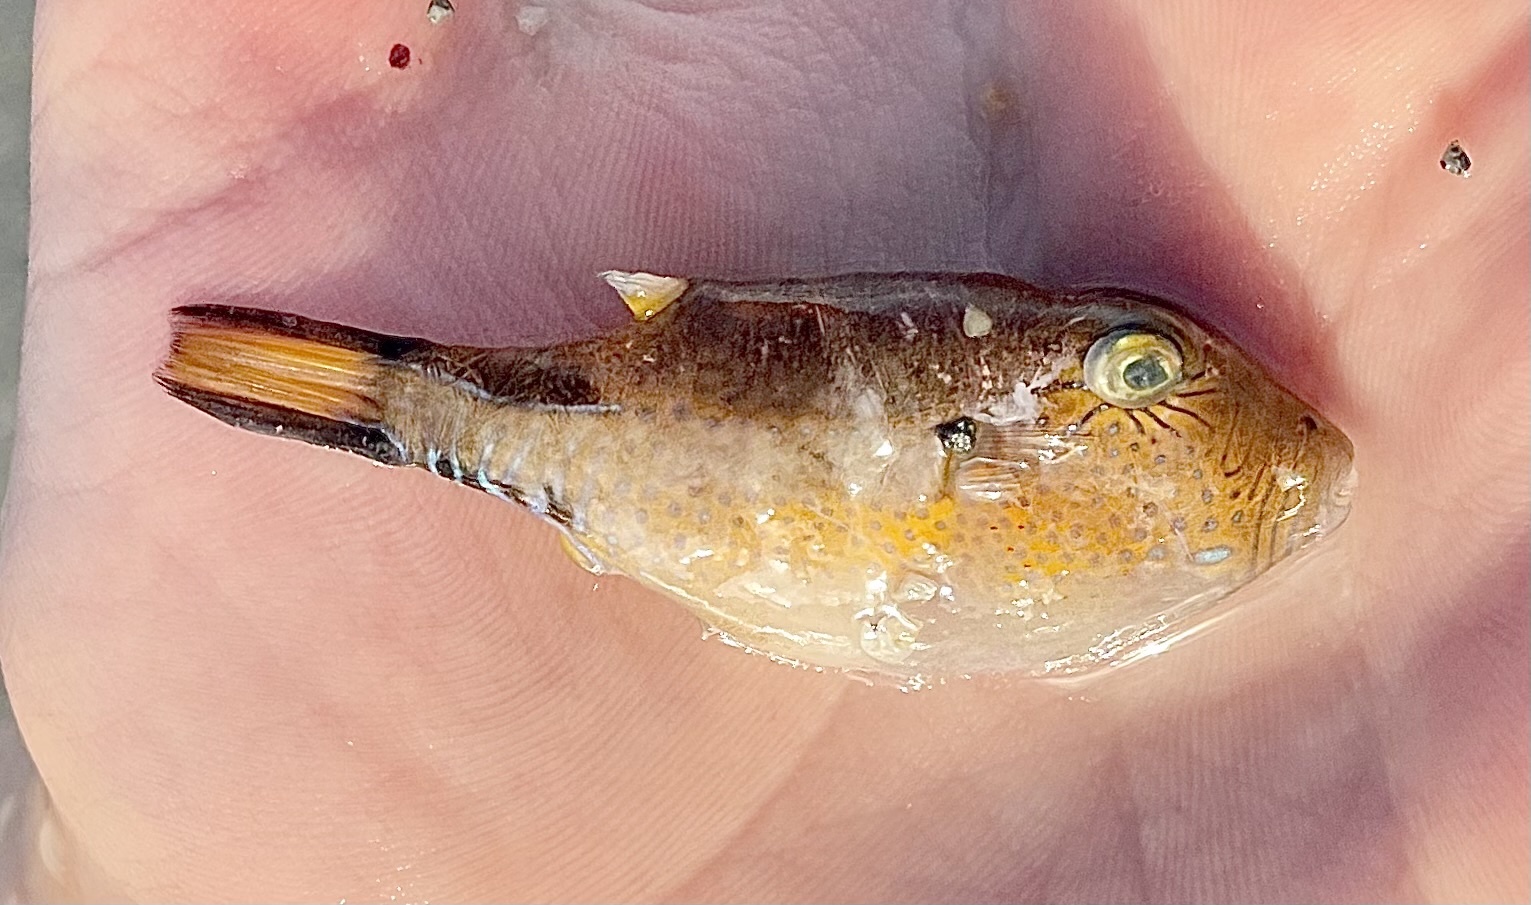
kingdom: Animalia
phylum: Chordata
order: Tetraodontiformes
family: Tetraodontidae
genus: Canthigaster
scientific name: Canthigaster rostrata
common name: Caribbean sharpnose-puffer
